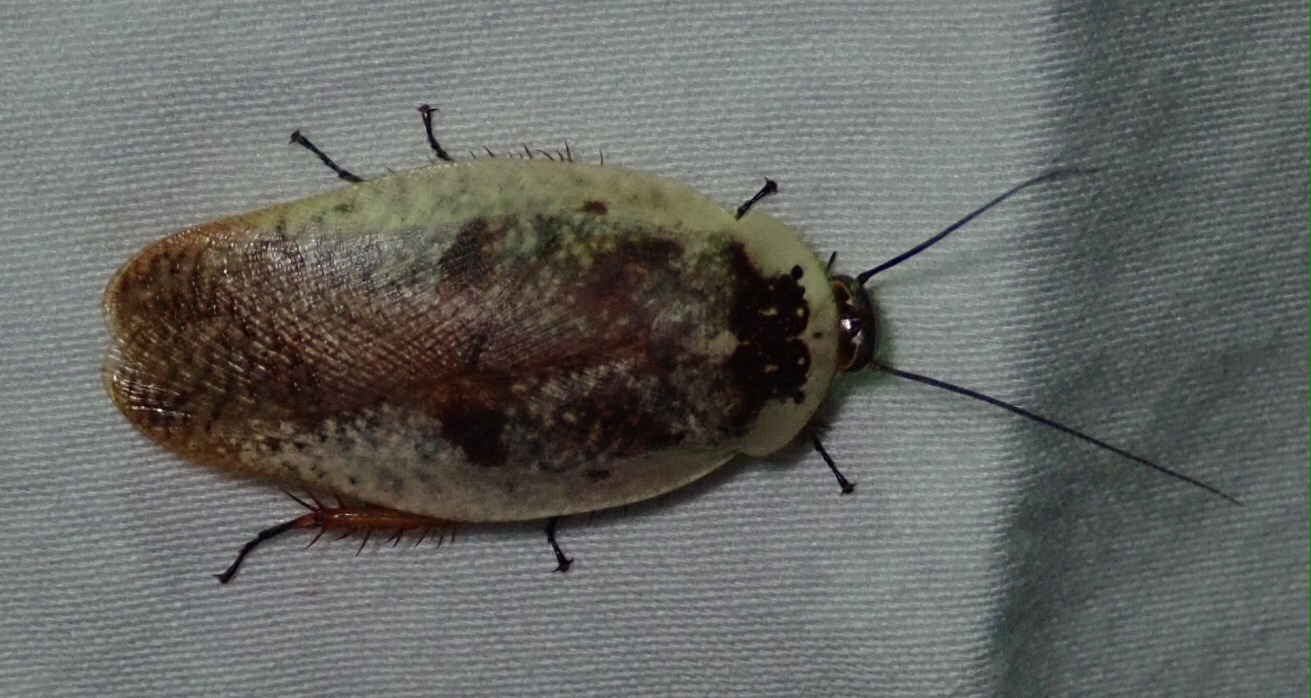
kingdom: Animalia
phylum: Arthropoda
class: Insecta
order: Blattodea
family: Blaberidae
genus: Gyna
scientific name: Gyna caffrorum
